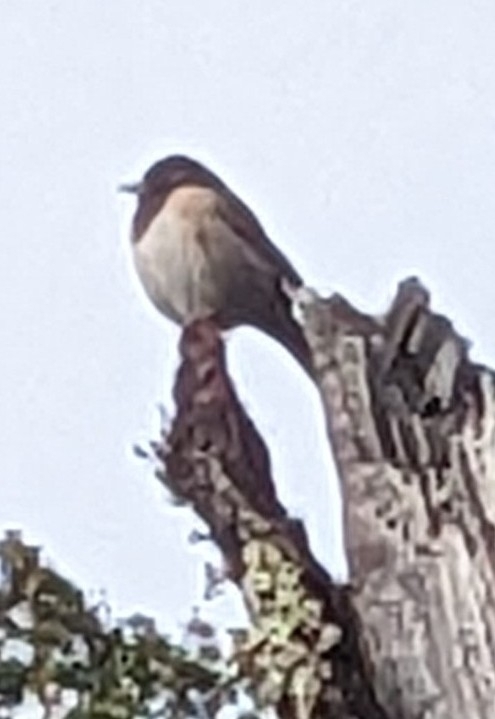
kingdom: Animalia
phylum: Chordata
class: Aves
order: Passeriformes
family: Passerellidae
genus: Junco
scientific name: Junco hyemalis
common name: Dark-eyed junco
